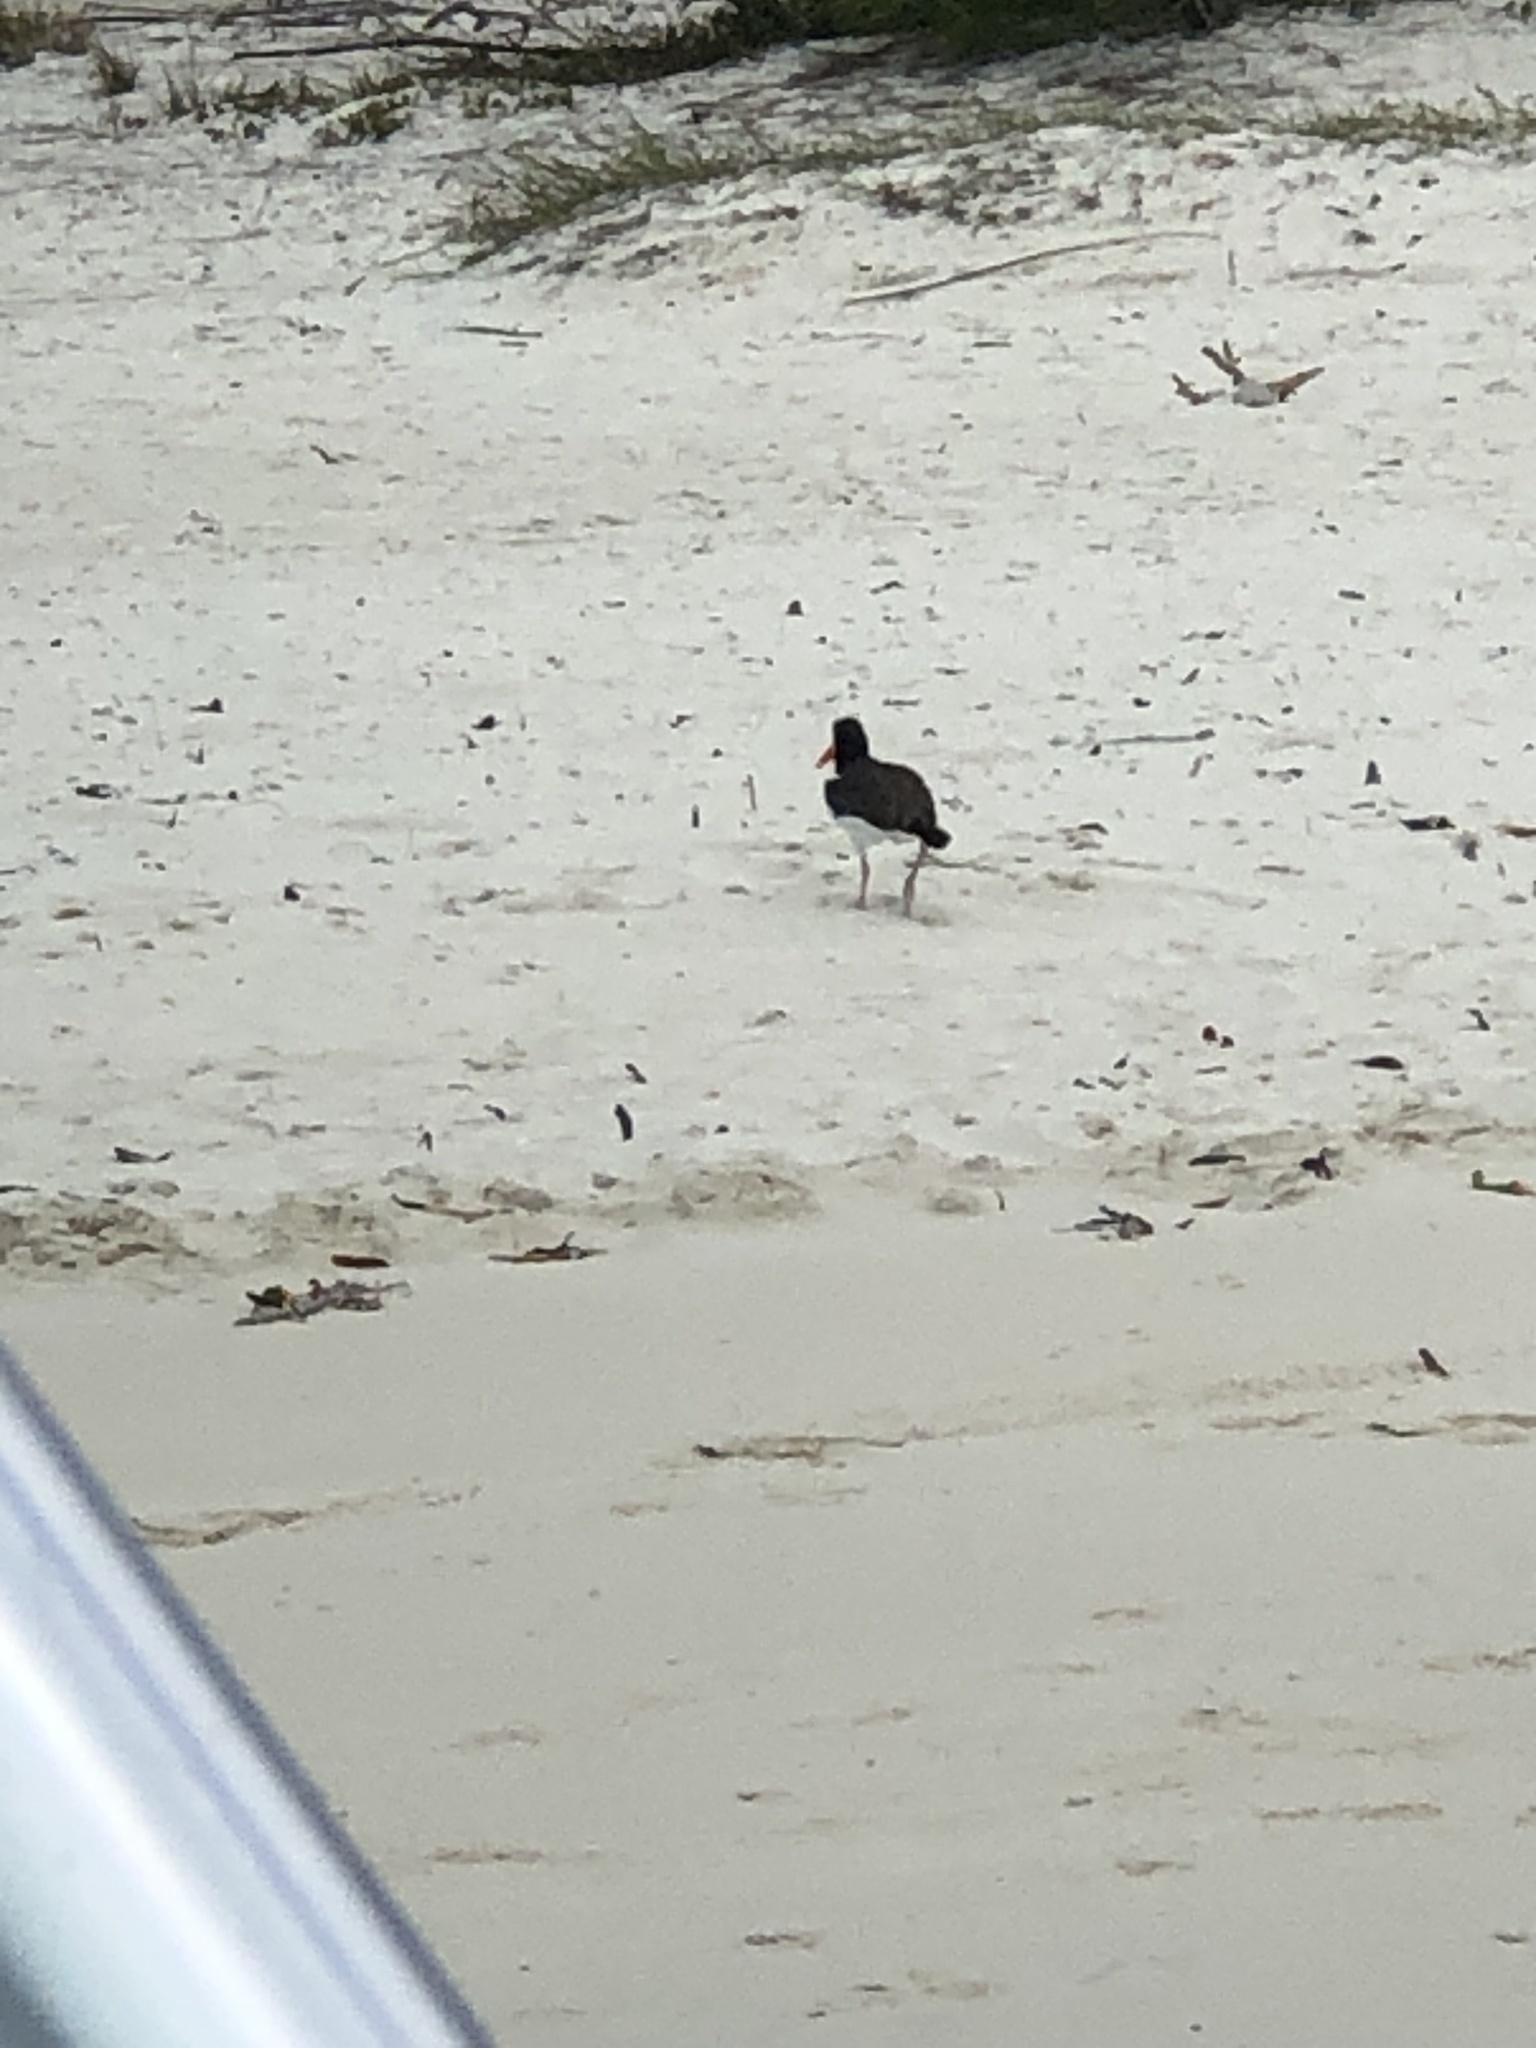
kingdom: Animalia
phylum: Chordata
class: Aves
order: Charadriiformes
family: Haematopodidae
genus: Haematopus
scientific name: Haematopus palliatus
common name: American oystercatcher
